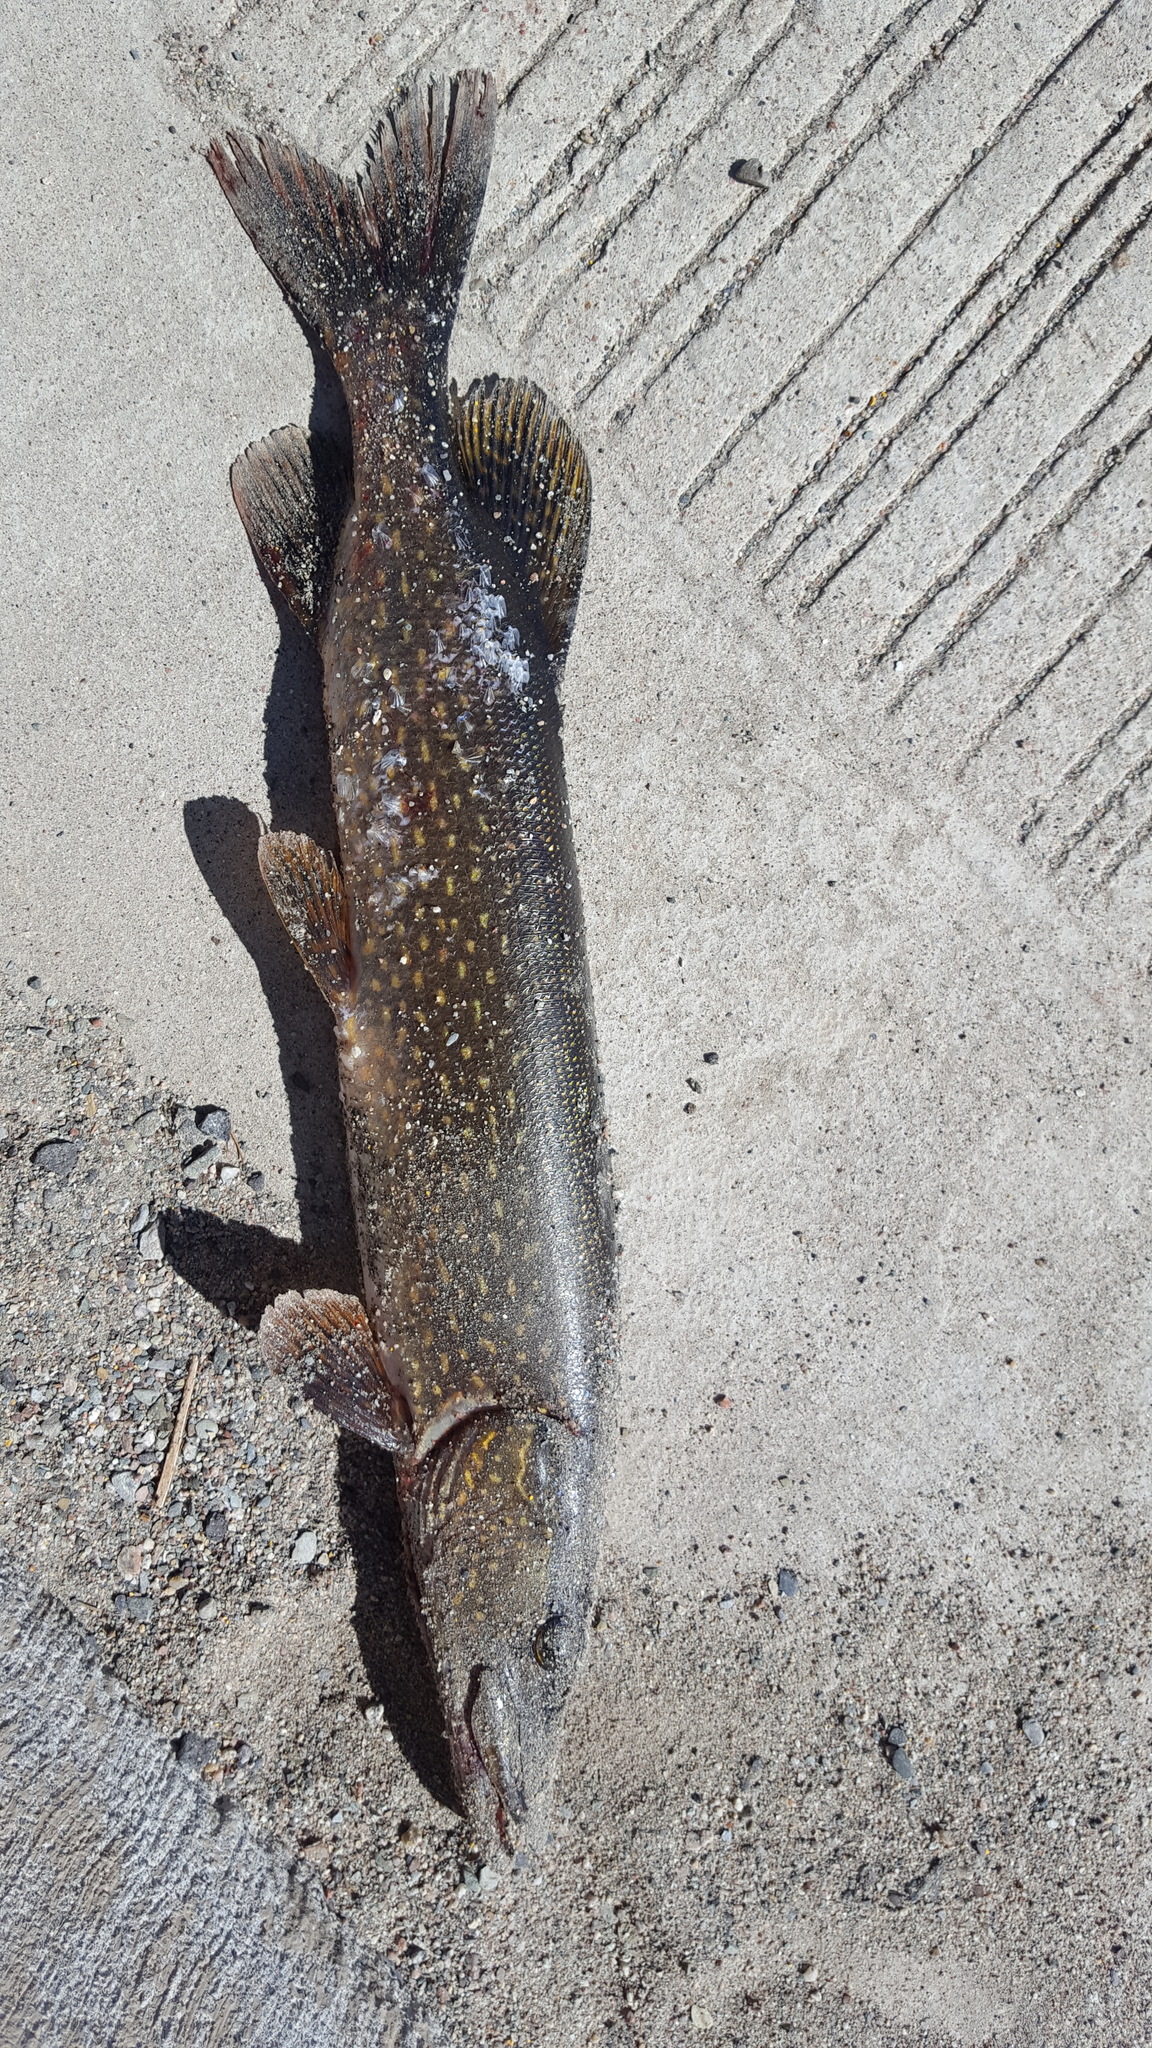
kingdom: Animalia
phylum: Chordata
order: Esociformes
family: Esocidae
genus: Esox
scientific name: Esox lucius
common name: Northern pike
